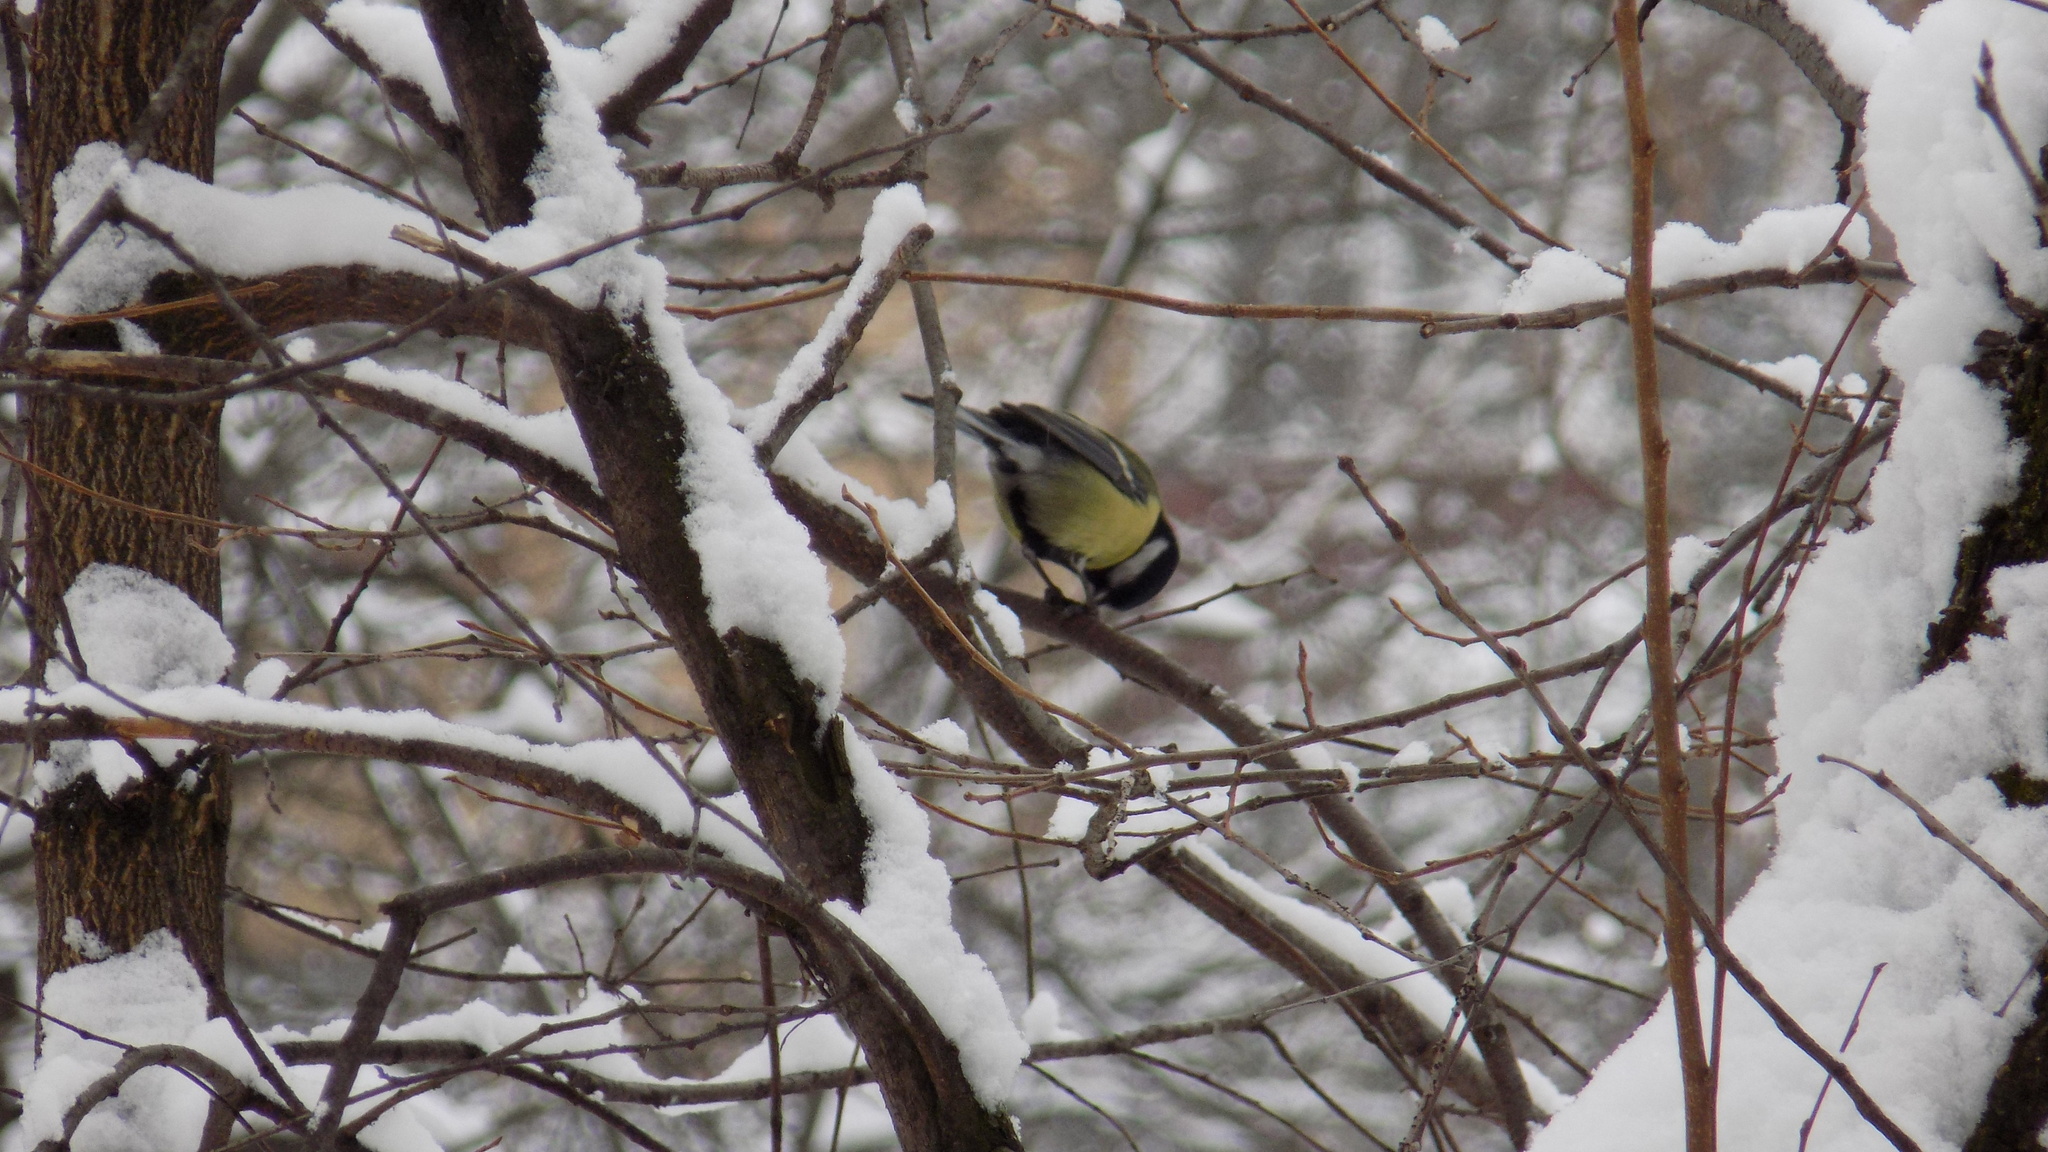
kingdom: Animalia
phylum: Chordata
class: Aves
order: Passeriformes
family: Paridae
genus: Parus
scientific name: Parus major
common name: Great tit
